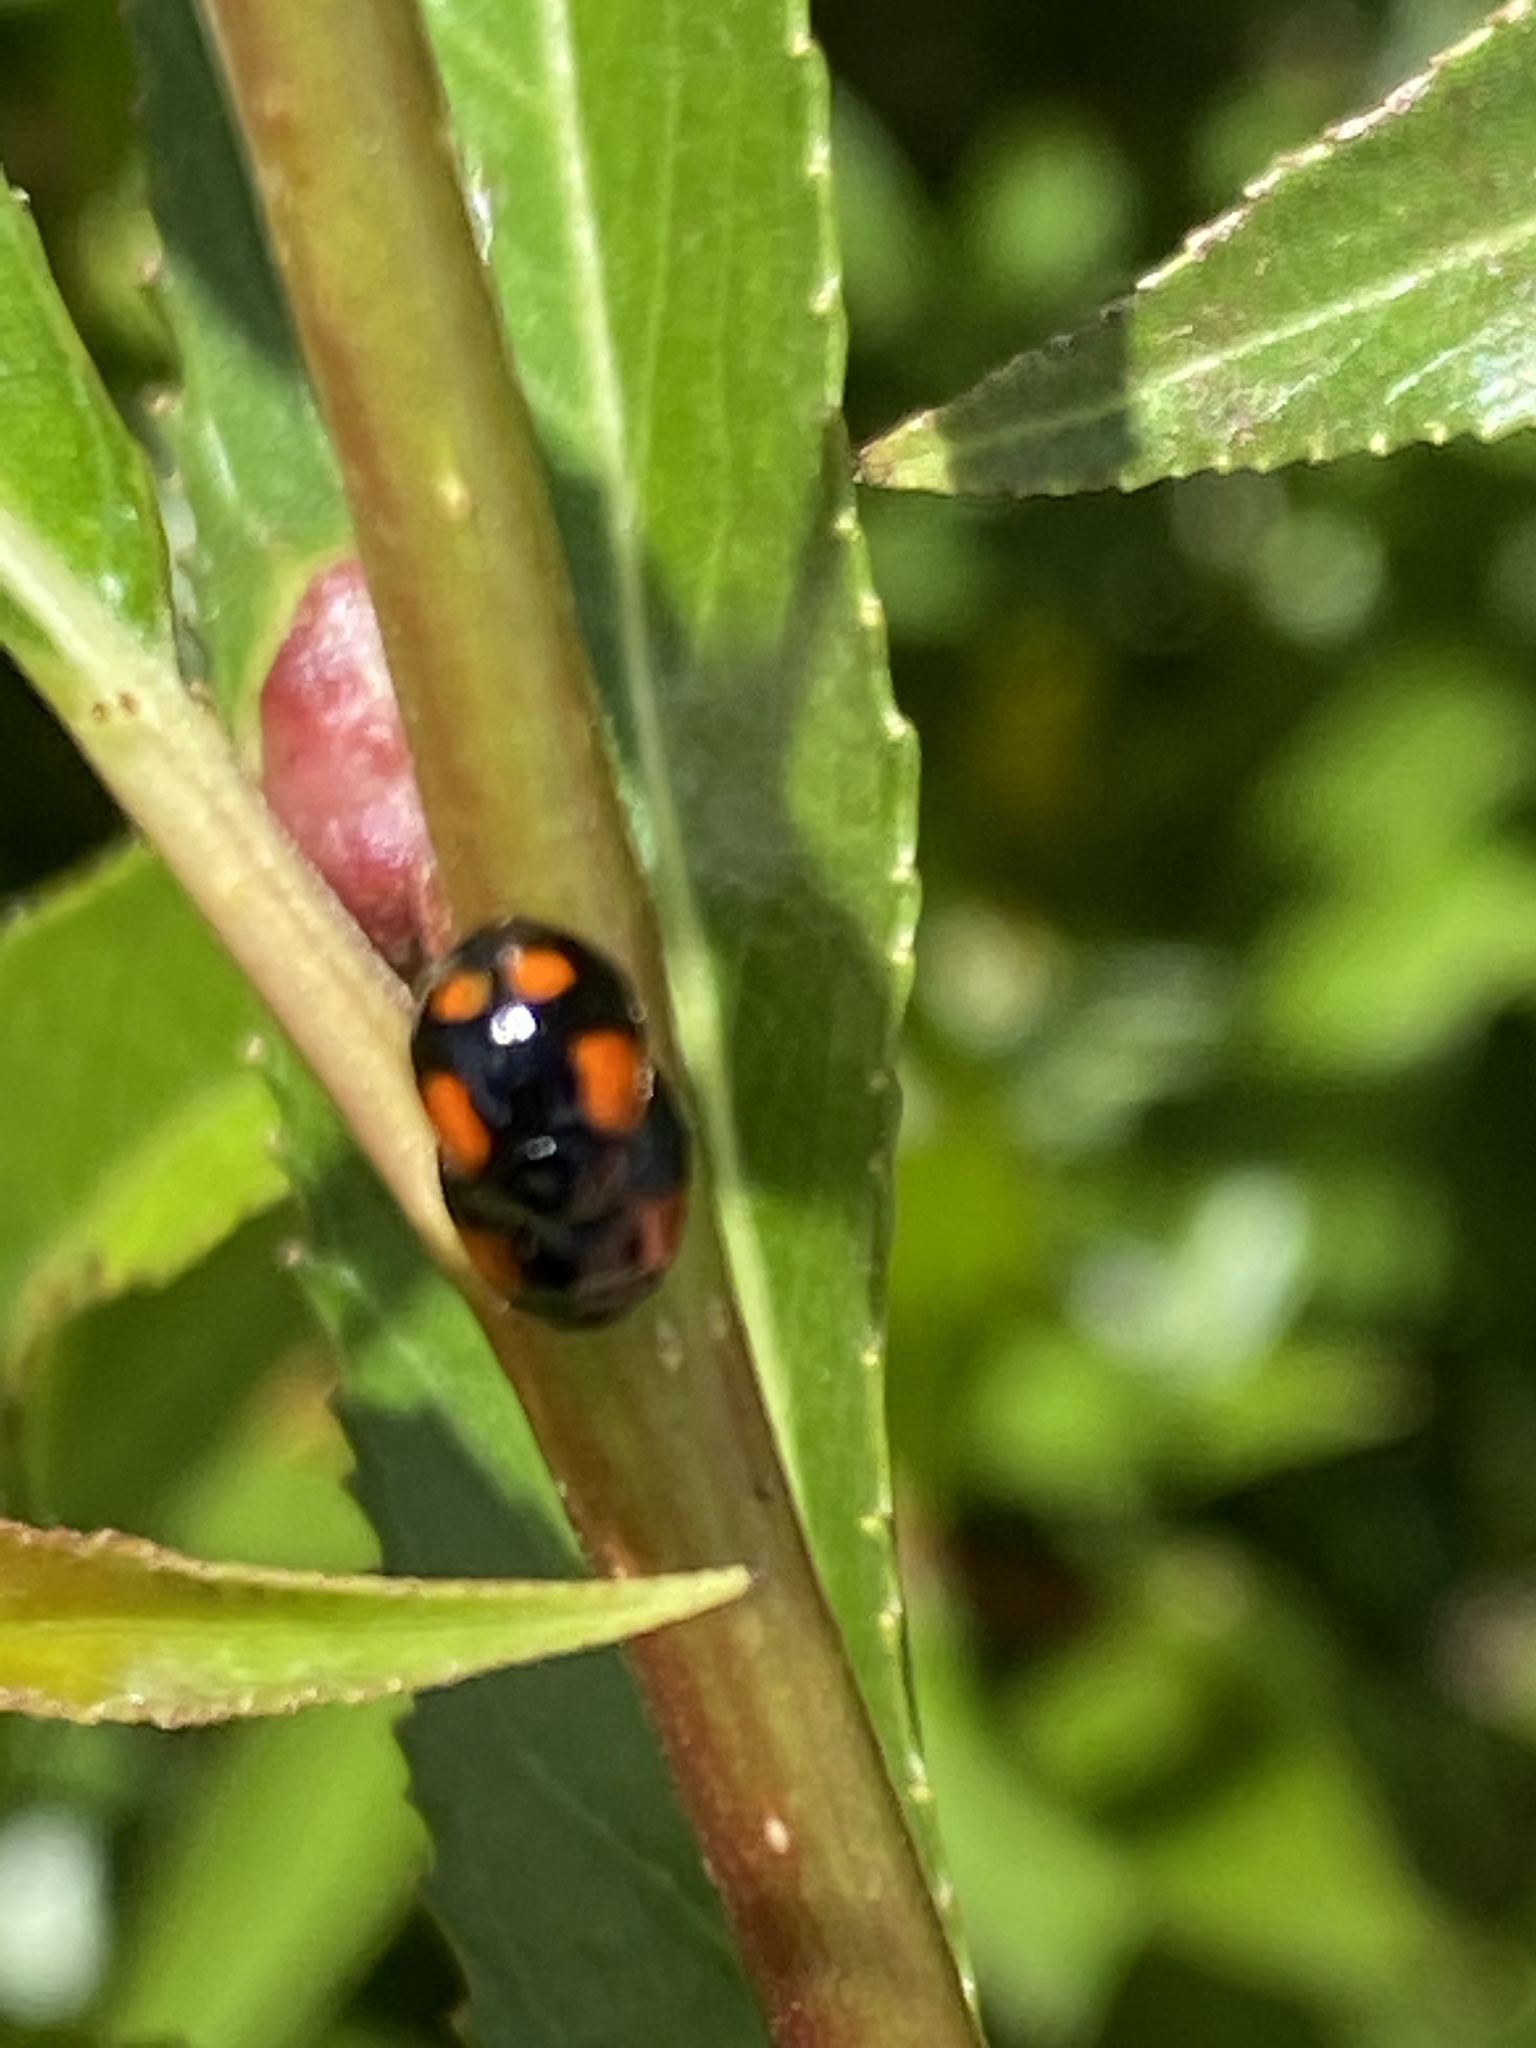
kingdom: Animalia
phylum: Arthropoda
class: Insecta
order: Coleoptera
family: Coccinellidae
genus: Adalia
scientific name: Adalia bipunctata
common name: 2-spot ladybird
